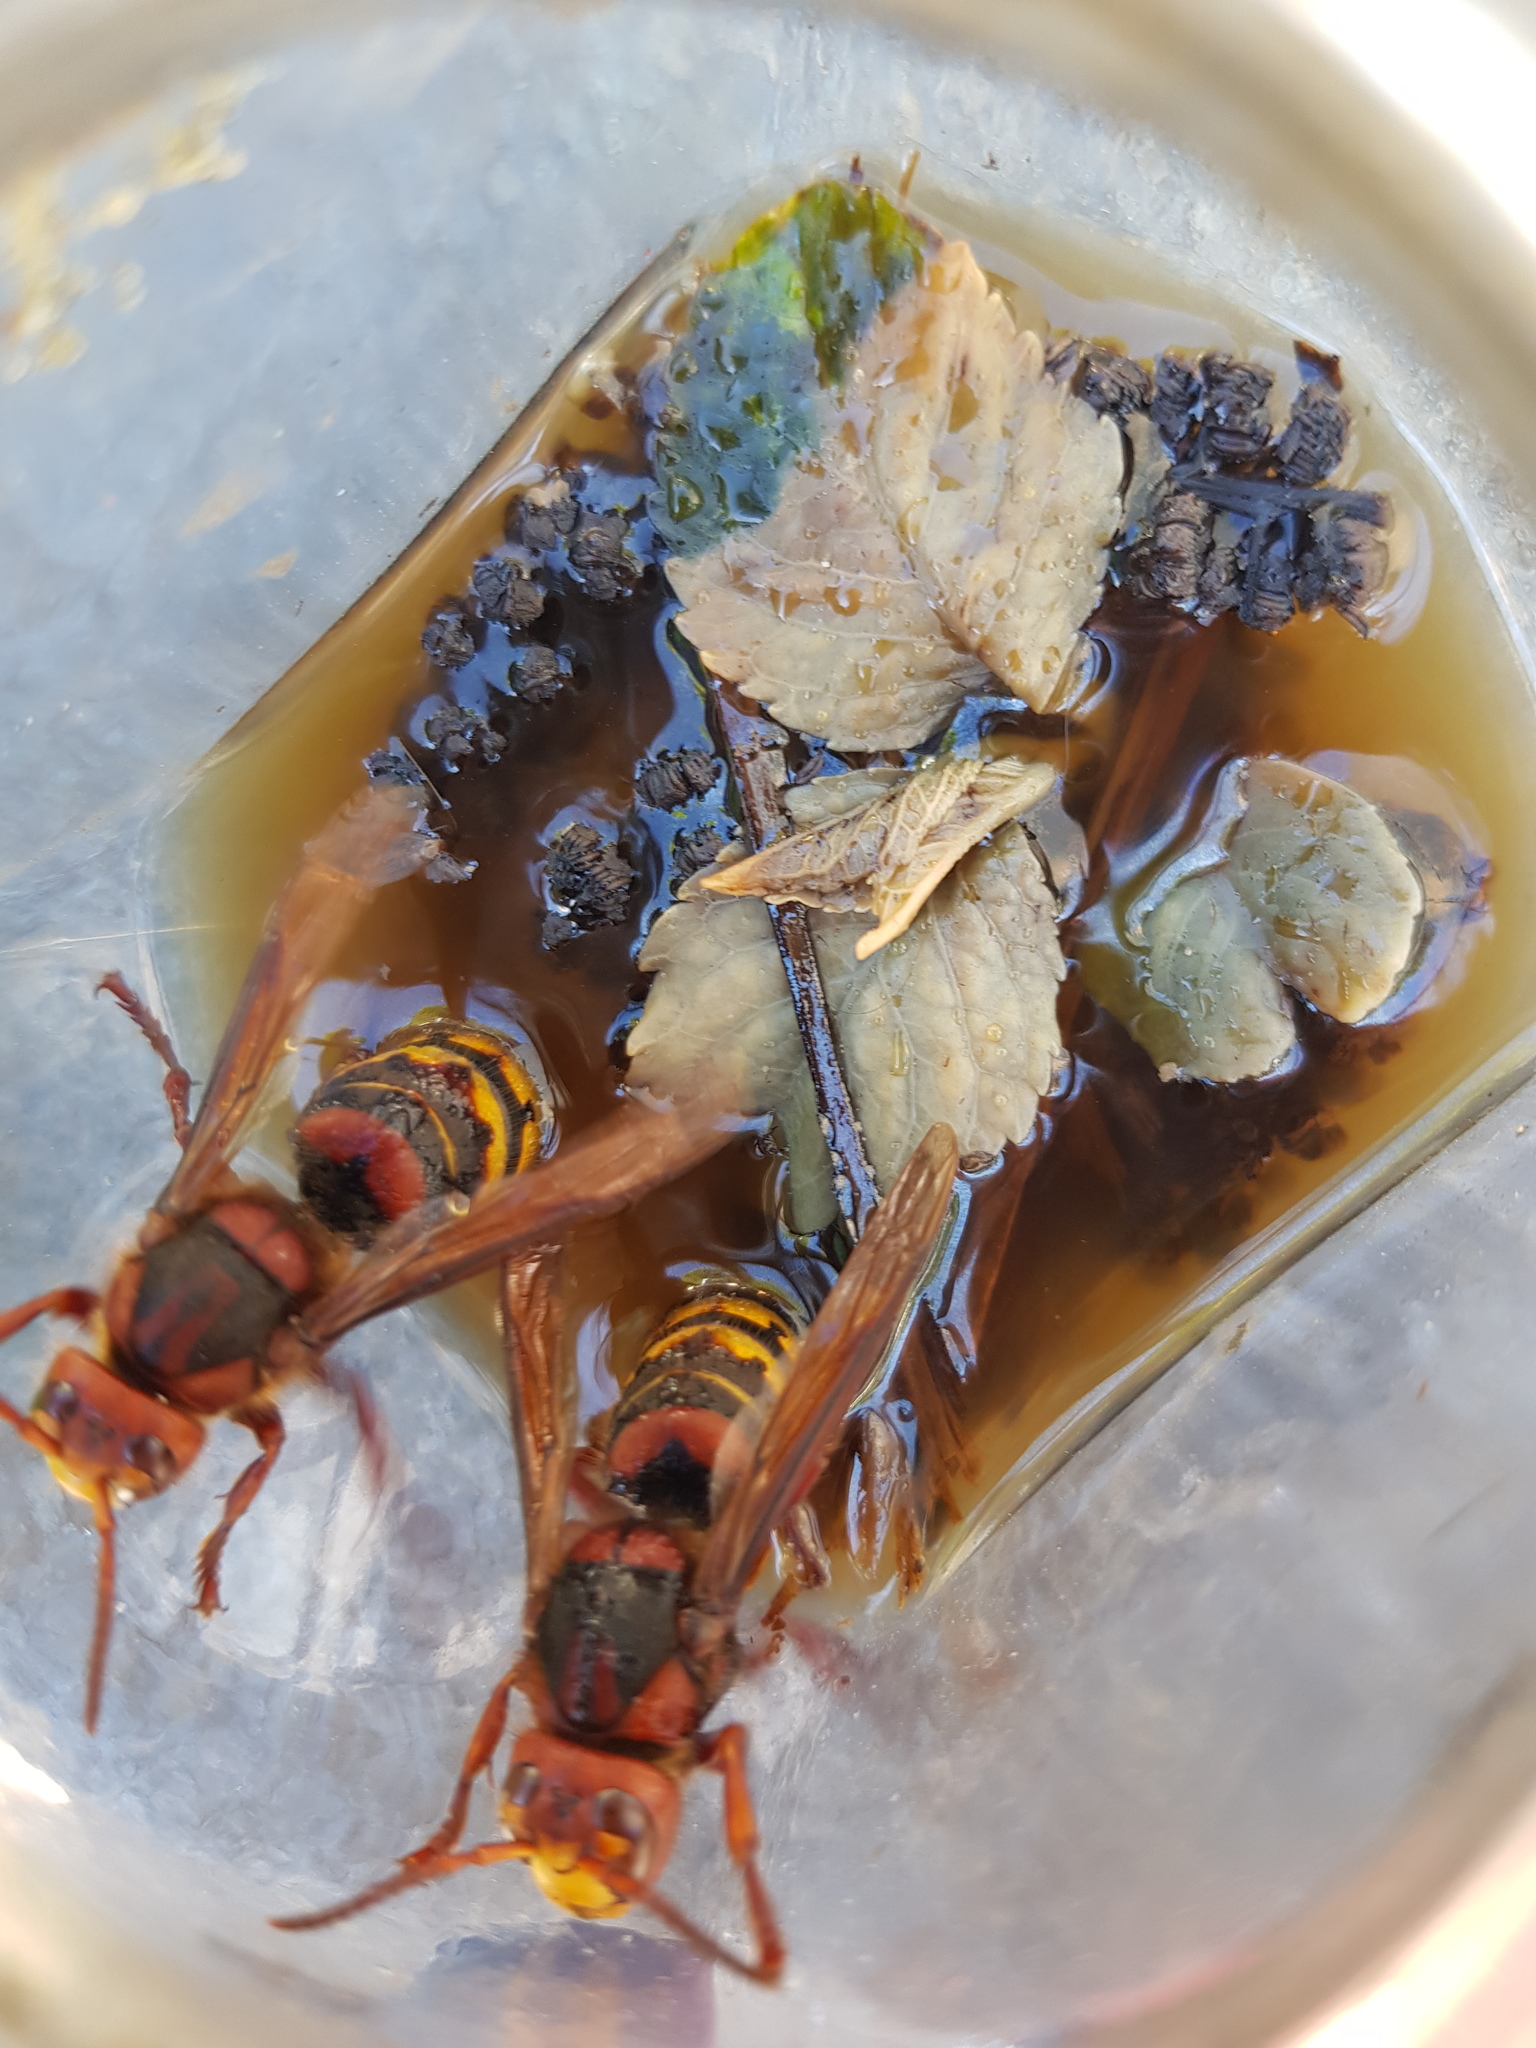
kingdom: Animalia
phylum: Arthropoda
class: Insecta
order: Hymenoptera
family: Vespidae
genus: Vespa
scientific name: Vespa crabro
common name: Hornet
